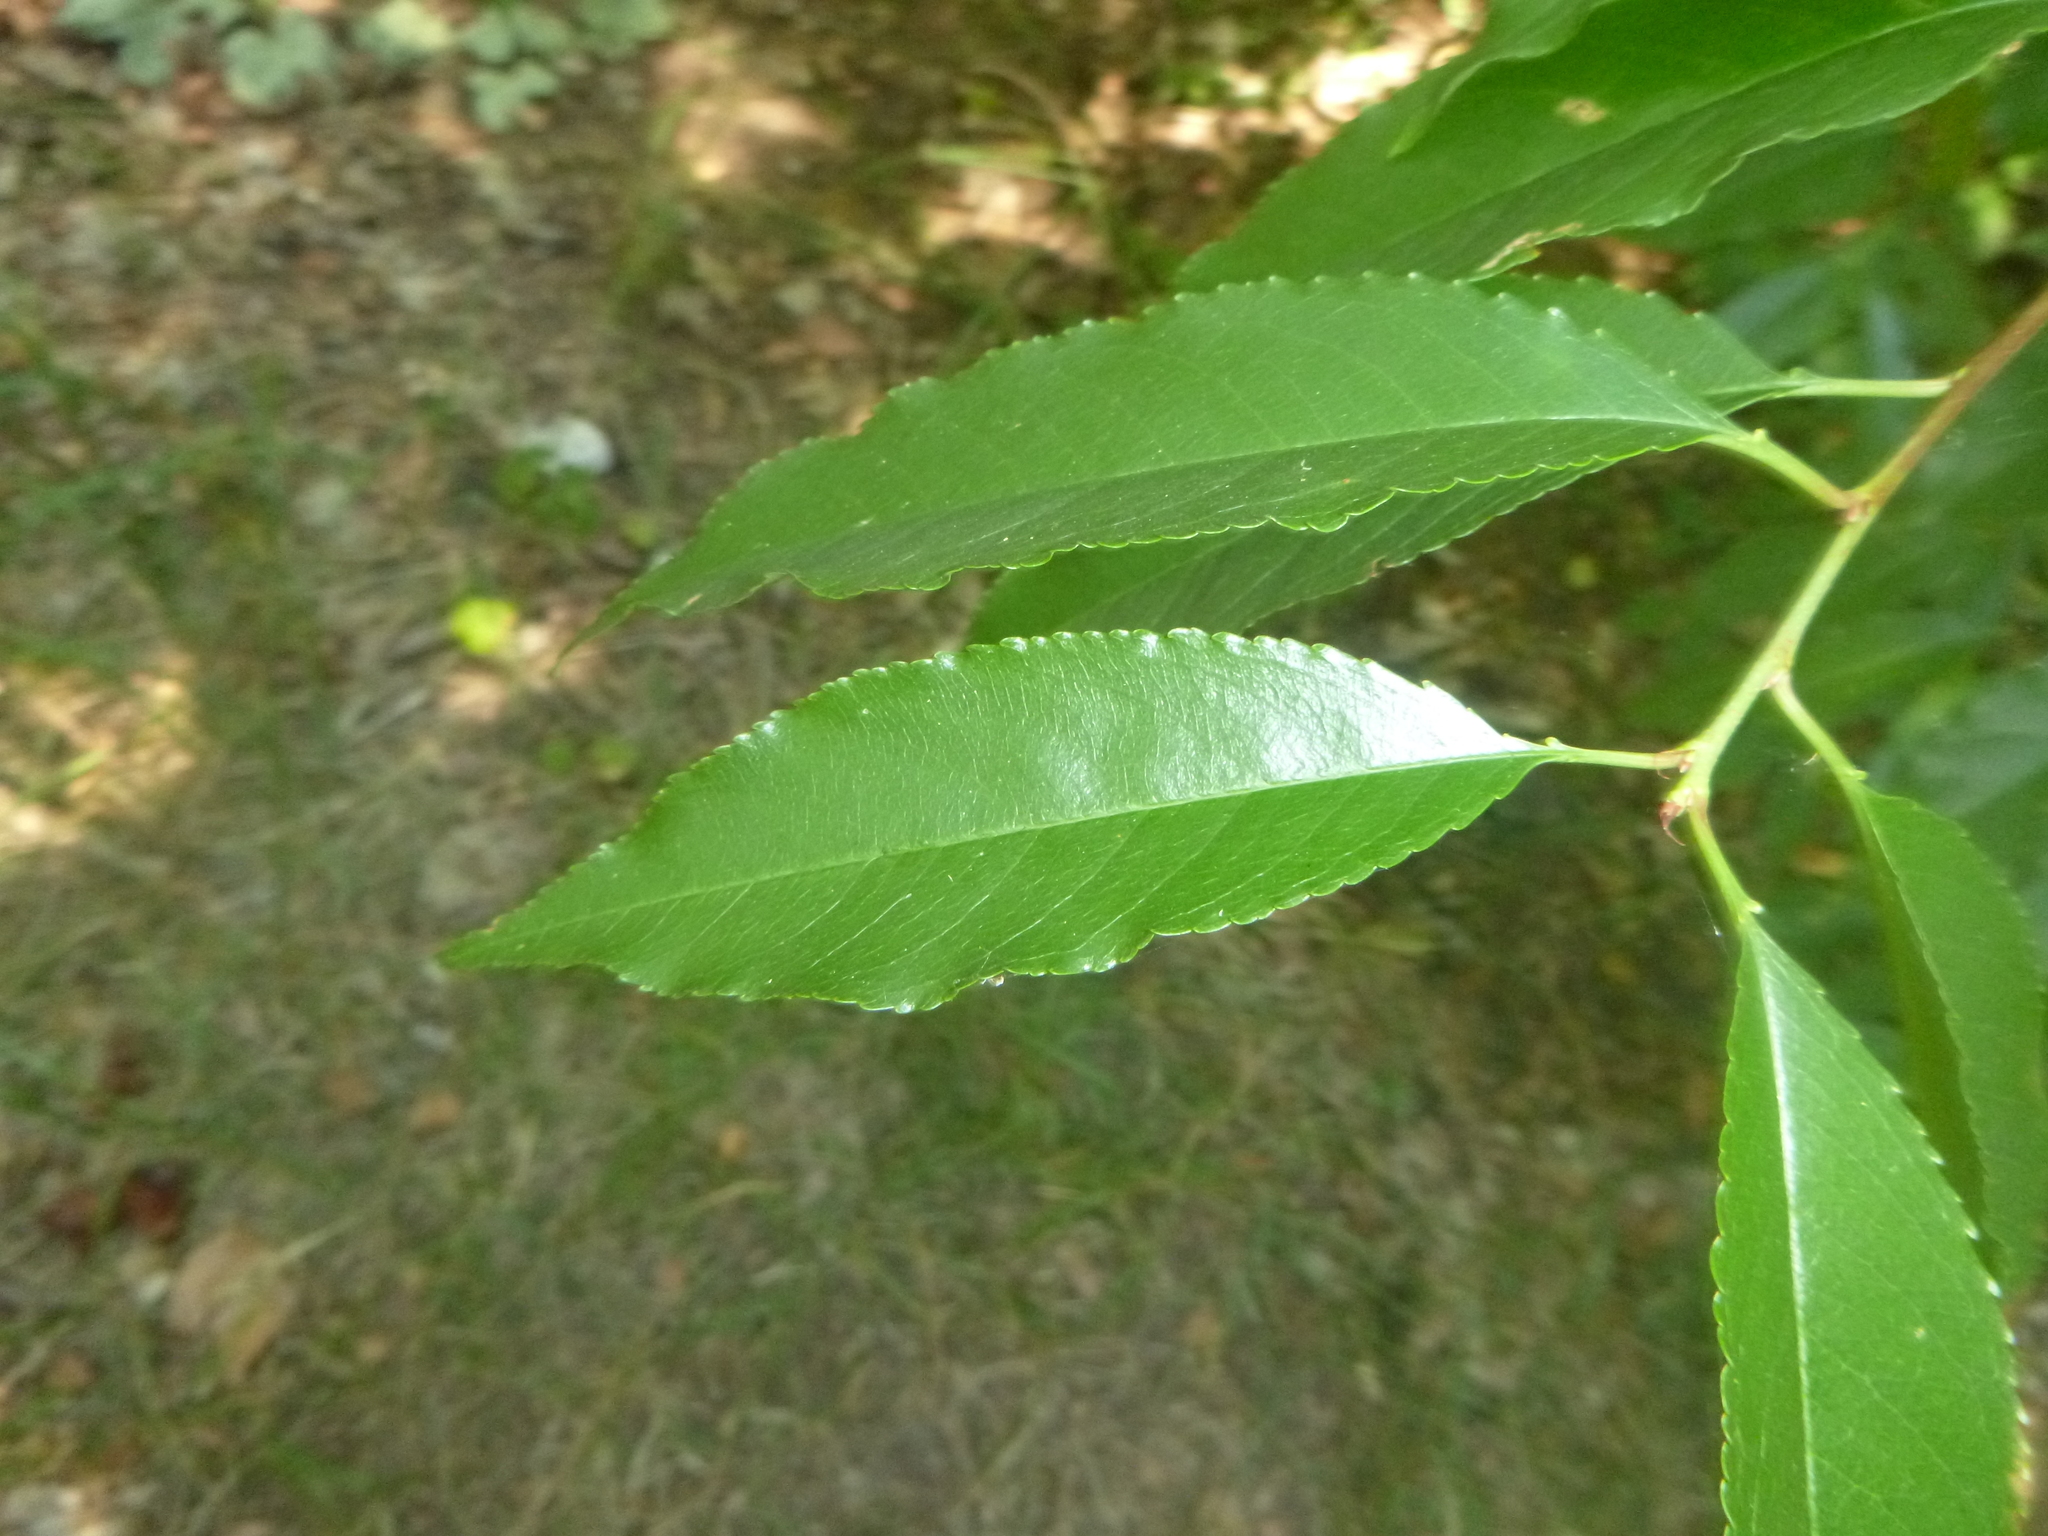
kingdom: Plantae
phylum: Tracheophyta
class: Magnoliopsida
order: Rosales
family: Rosaceae
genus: Prunus
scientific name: Prunus serotina
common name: Black cherry
